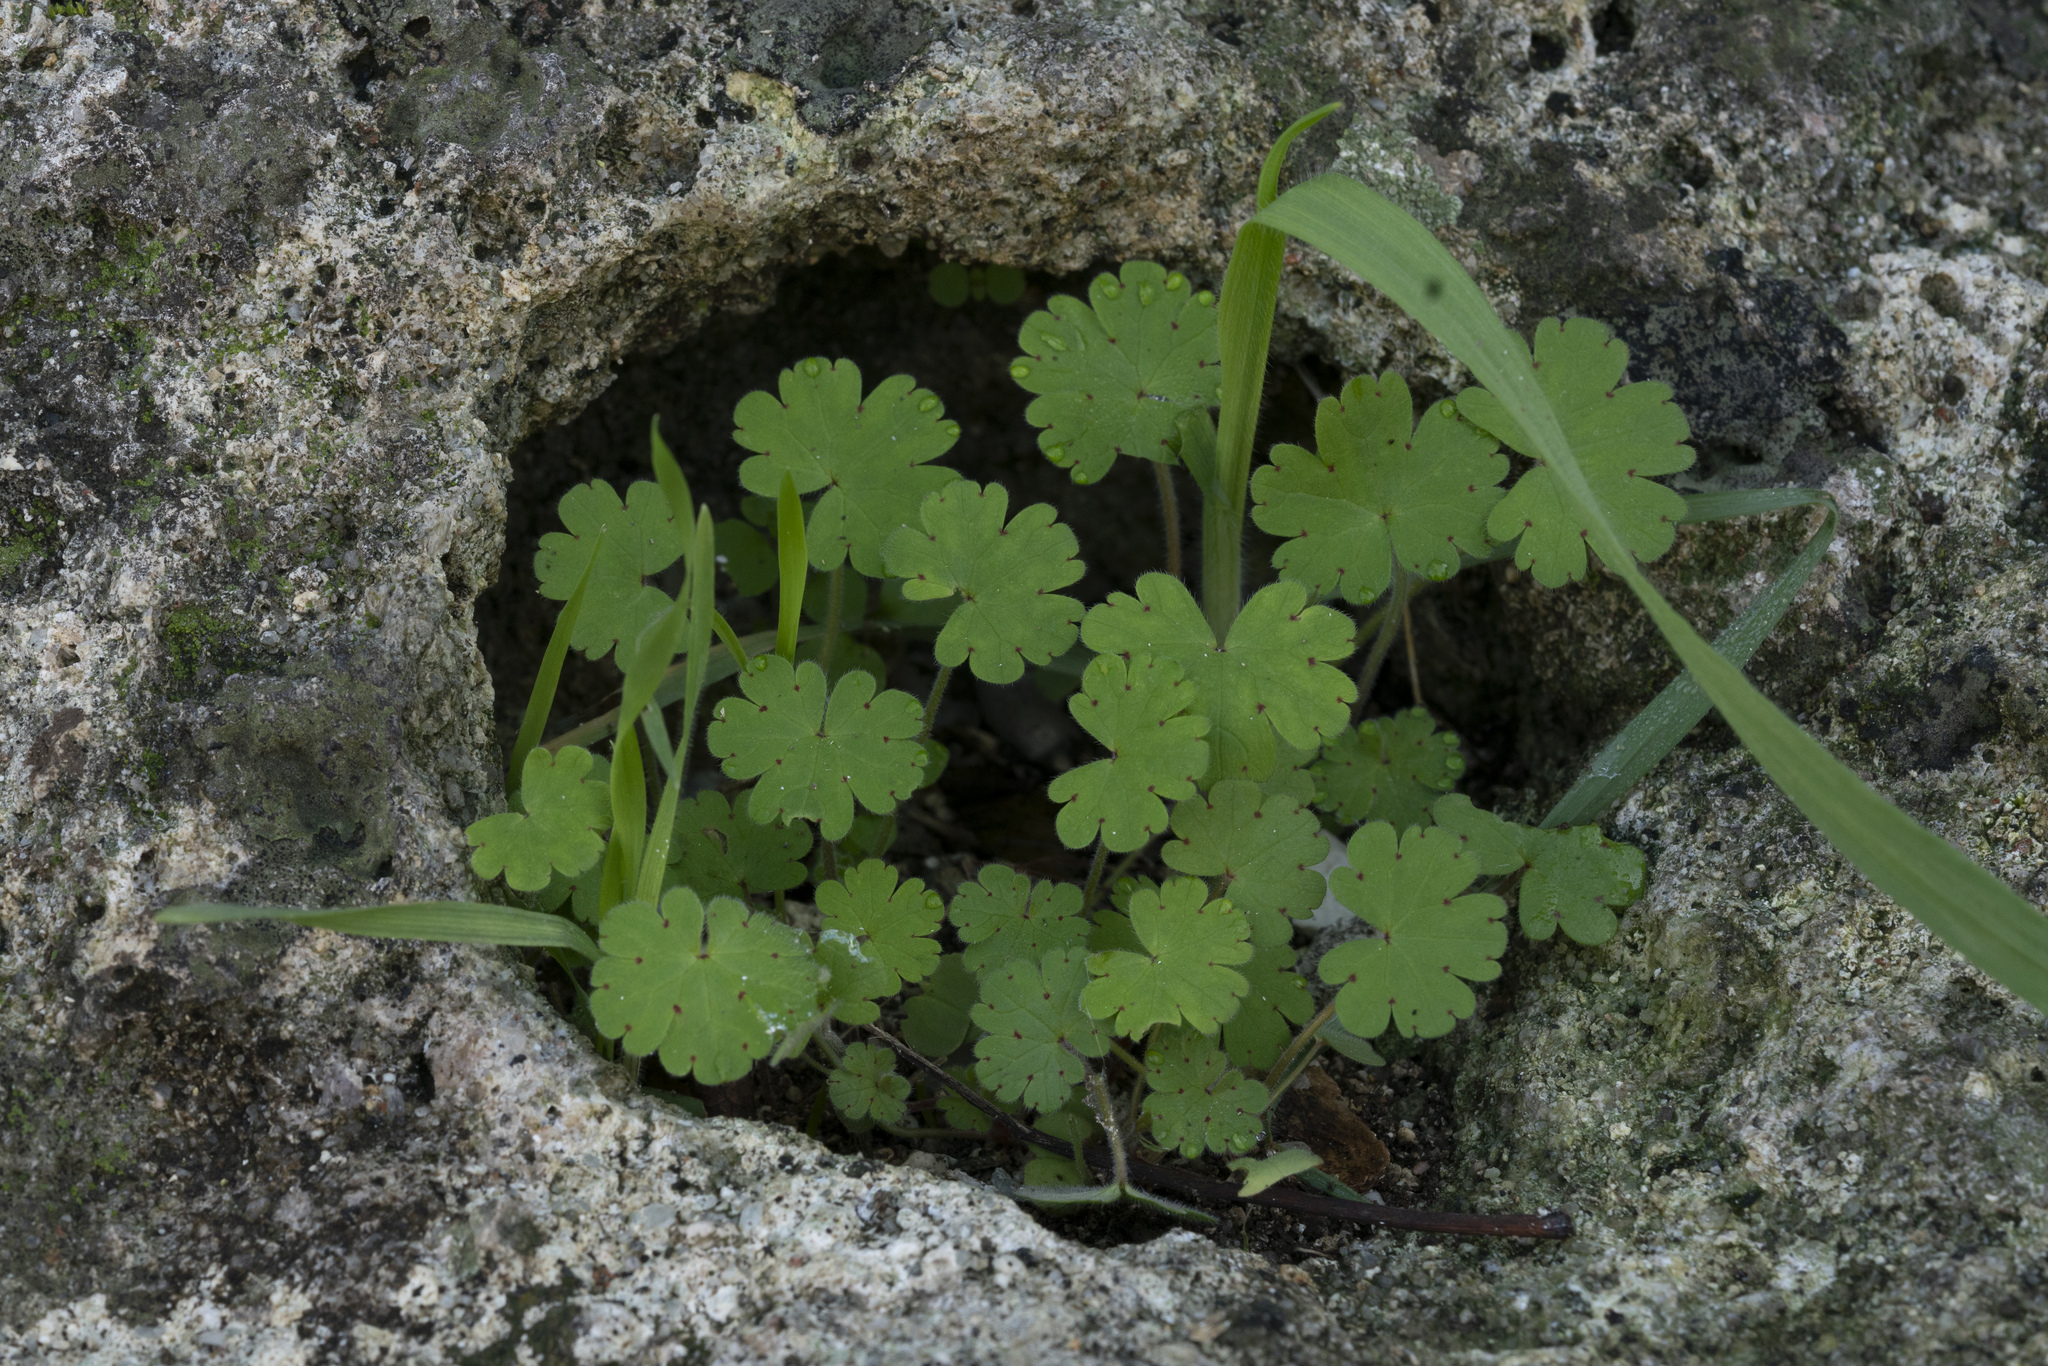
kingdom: Plantae
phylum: Tracheophyta
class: Magnoliopsida
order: Geraniales
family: Geraniaceae
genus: Geranium
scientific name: Geranium rotundifolium
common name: Round-leaved crane's-bill
